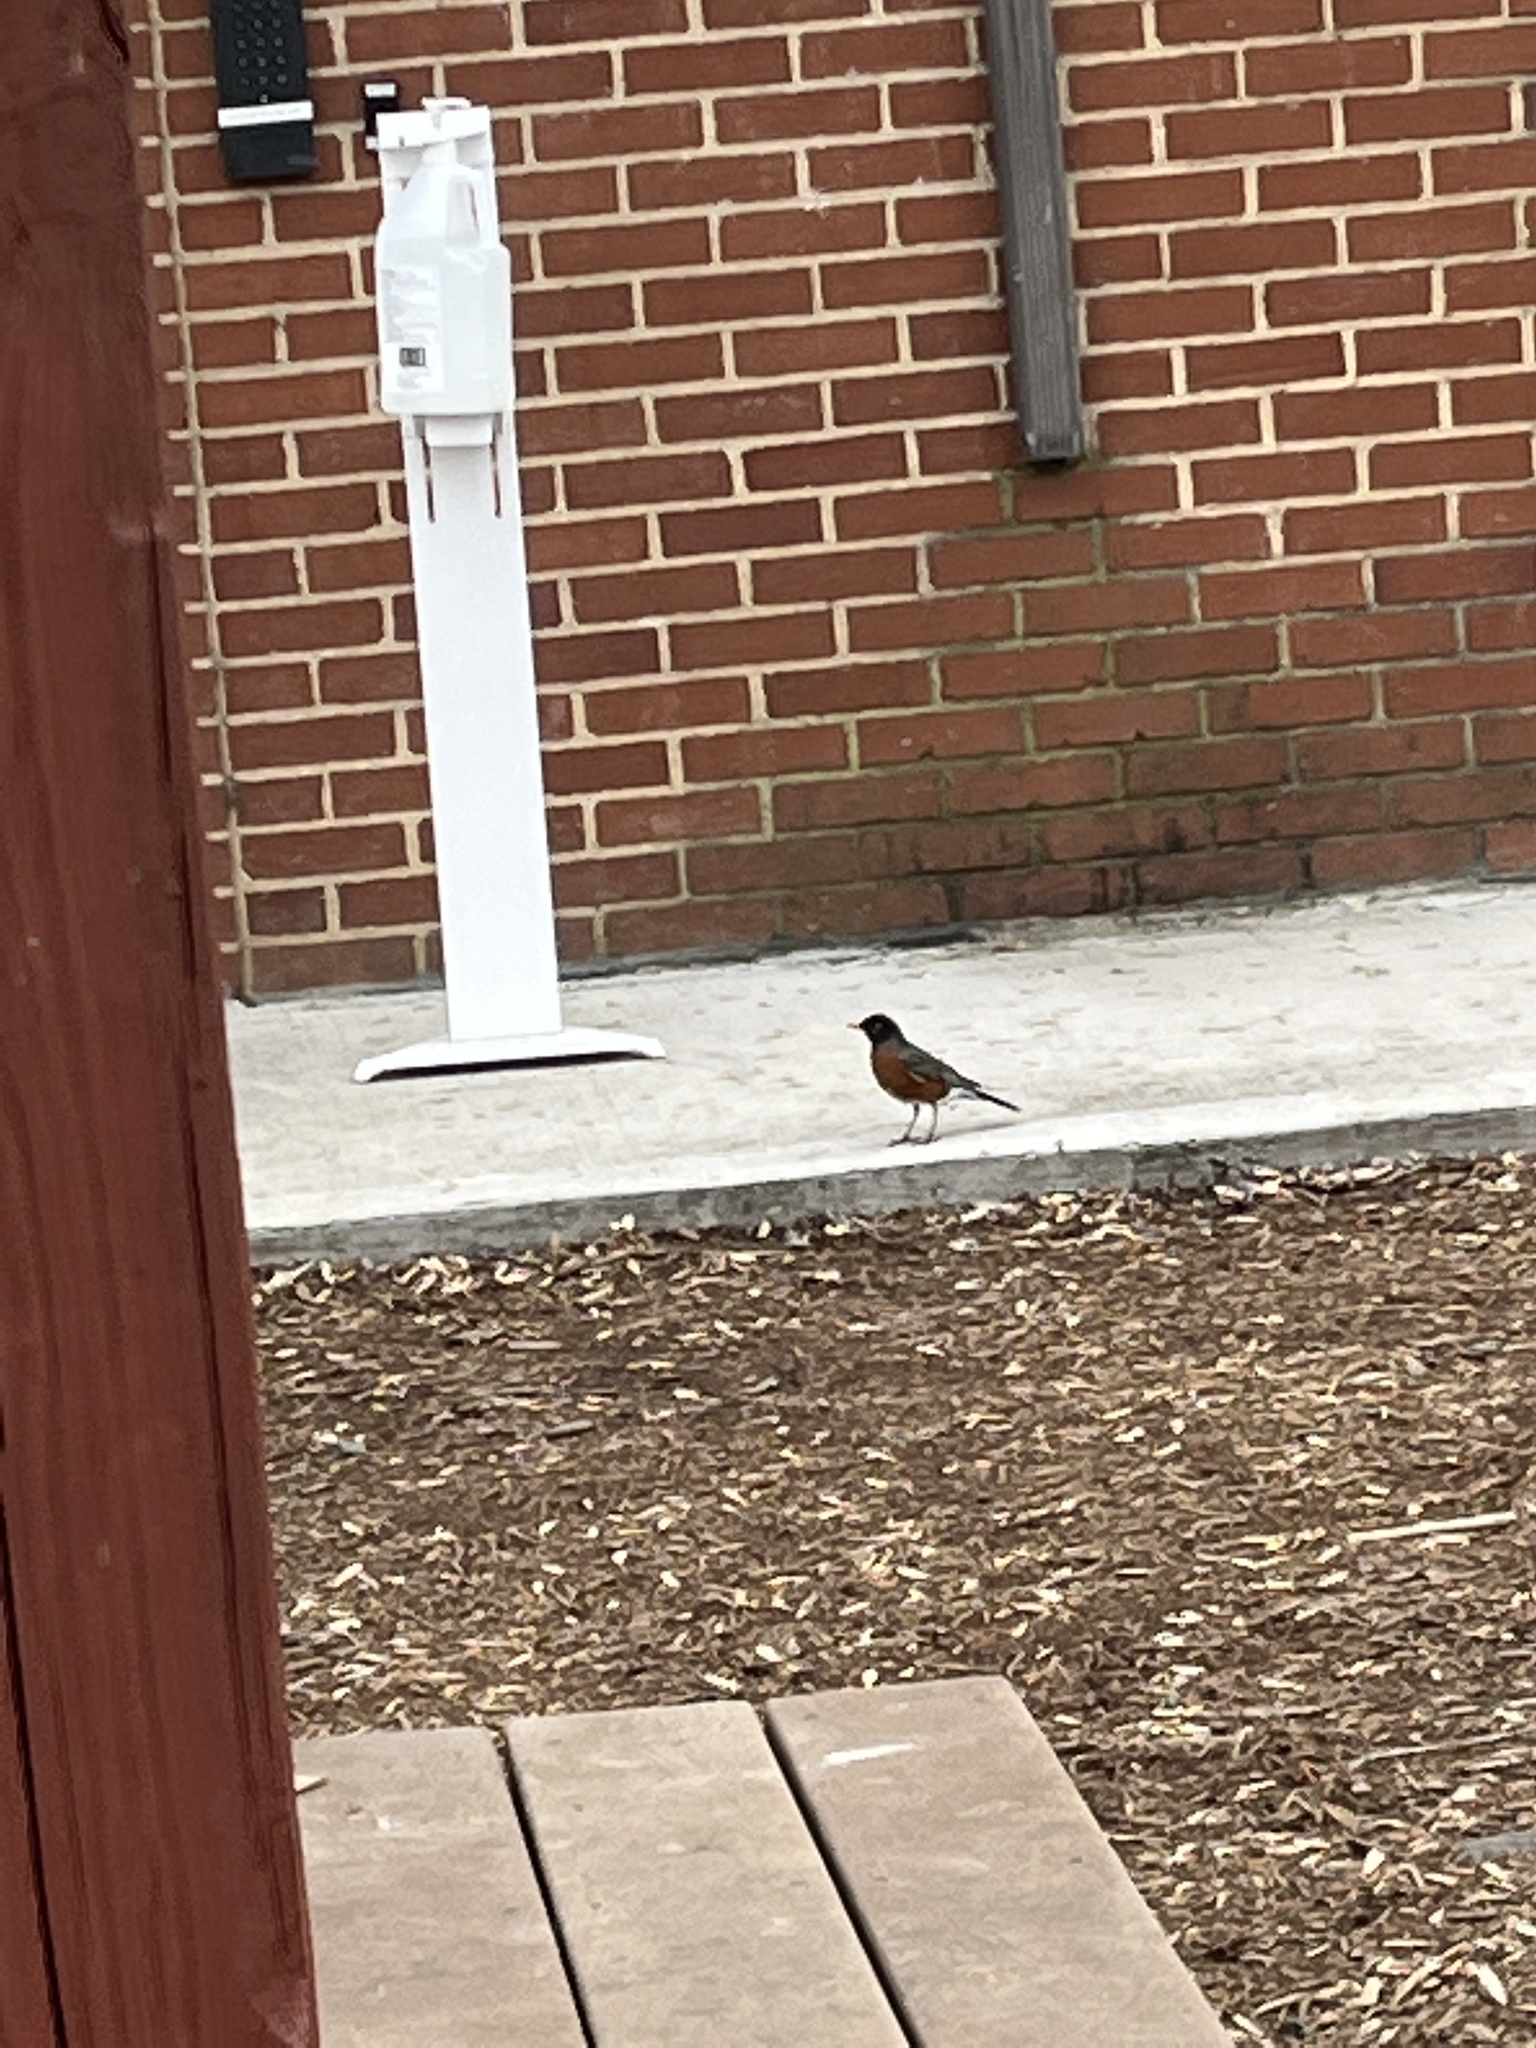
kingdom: Animalia
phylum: Chordata
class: Aves
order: Passeriformes
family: Turdidae
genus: Turdus
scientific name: Turdus migratorius
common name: American robin
